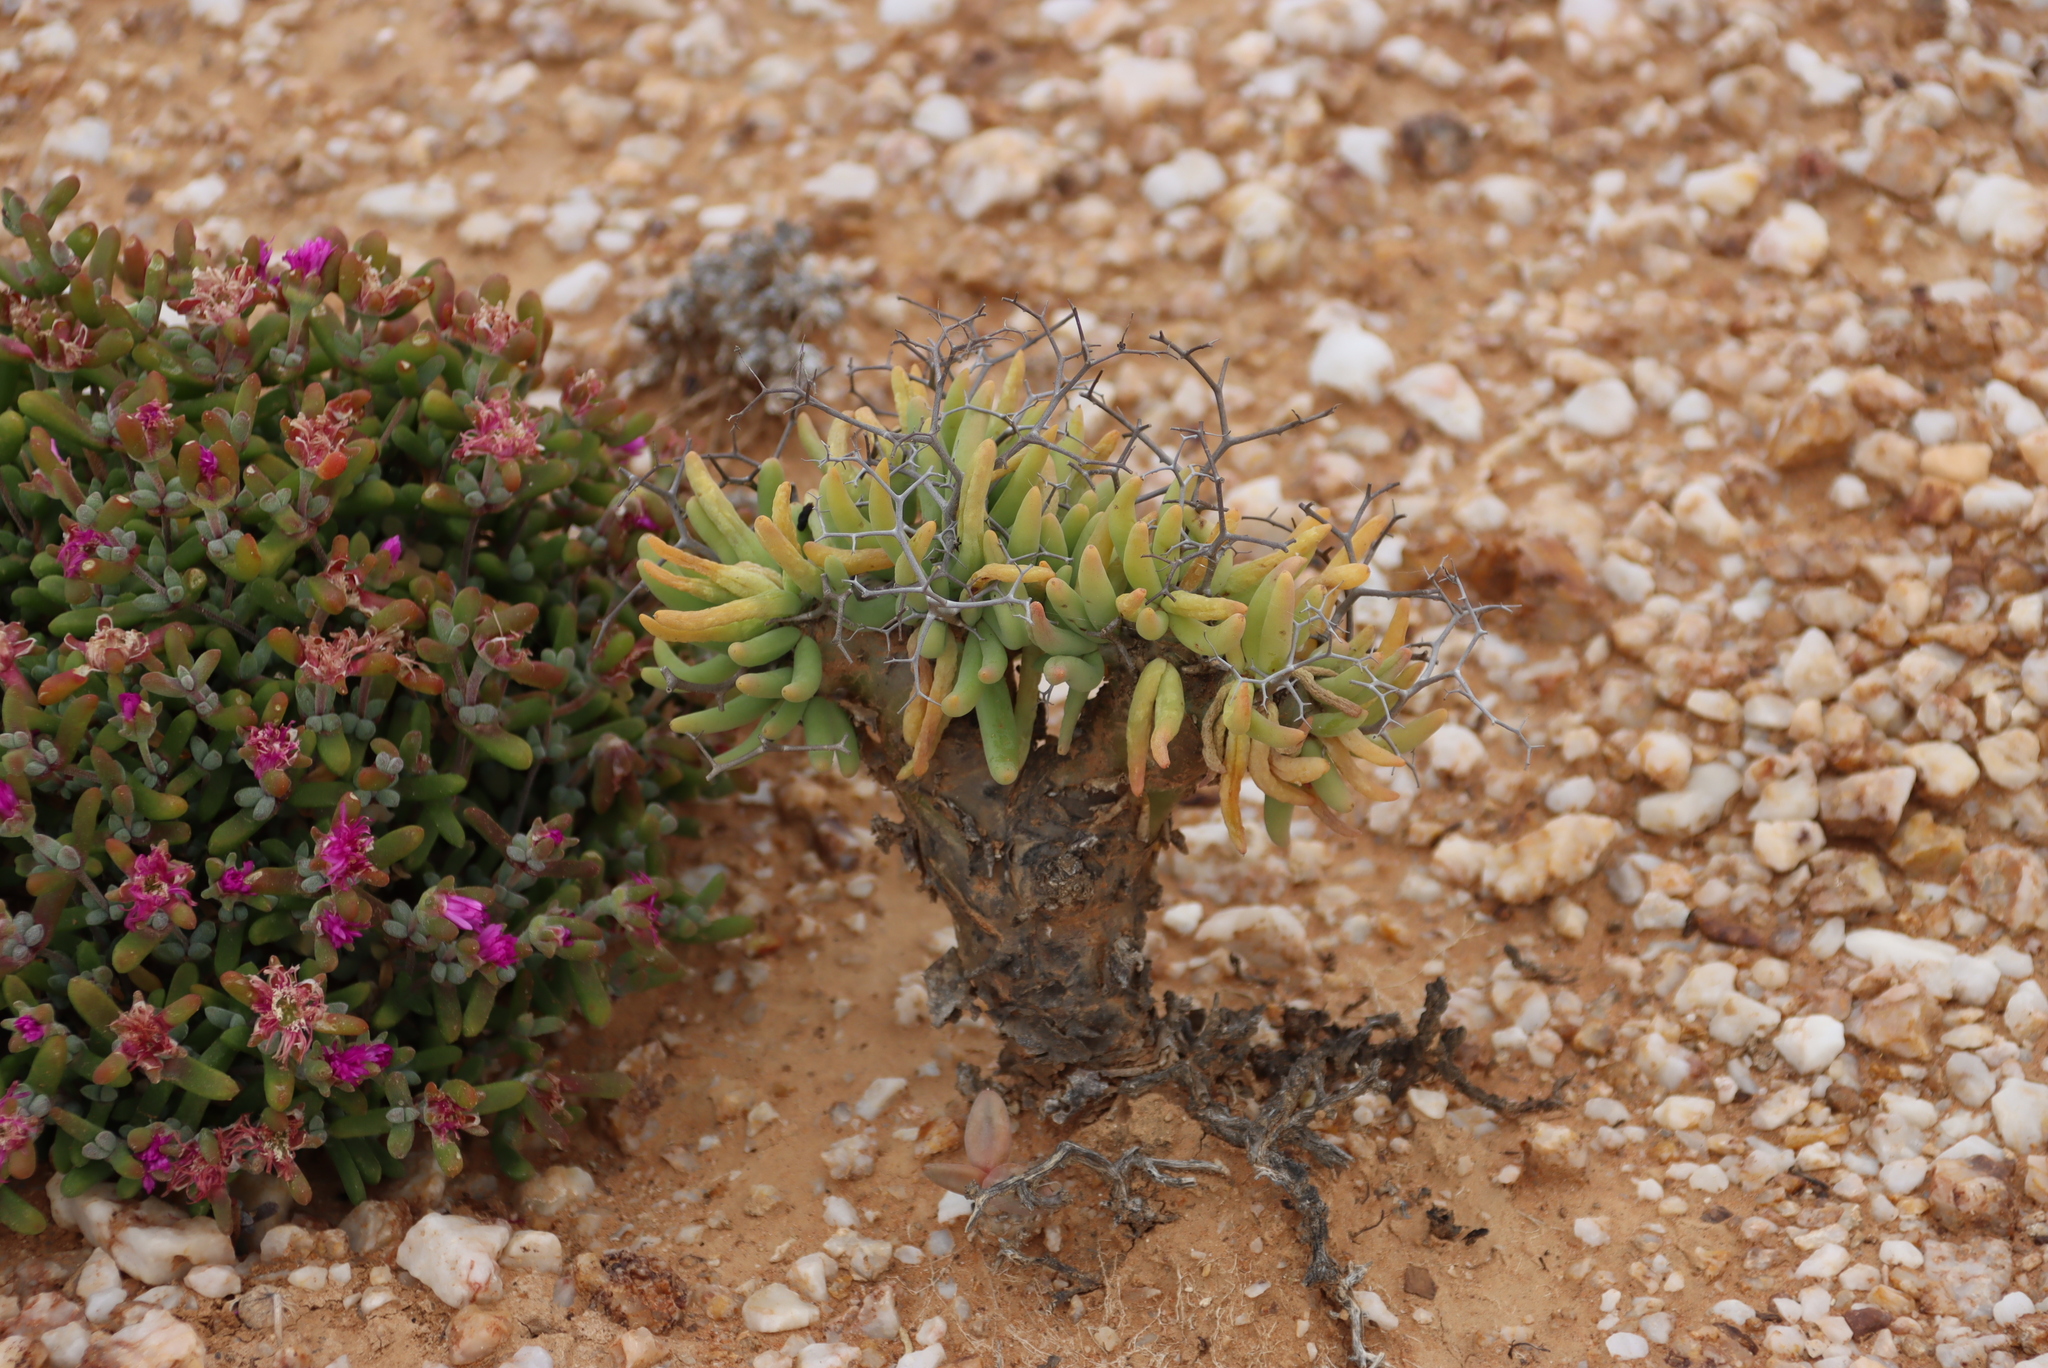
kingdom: Plantae
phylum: Tracheophyta
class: Magnoliopsida
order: Saxifragales
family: Crassulaceae
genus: Tylecodon
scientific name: Tylecodon reticulatus
